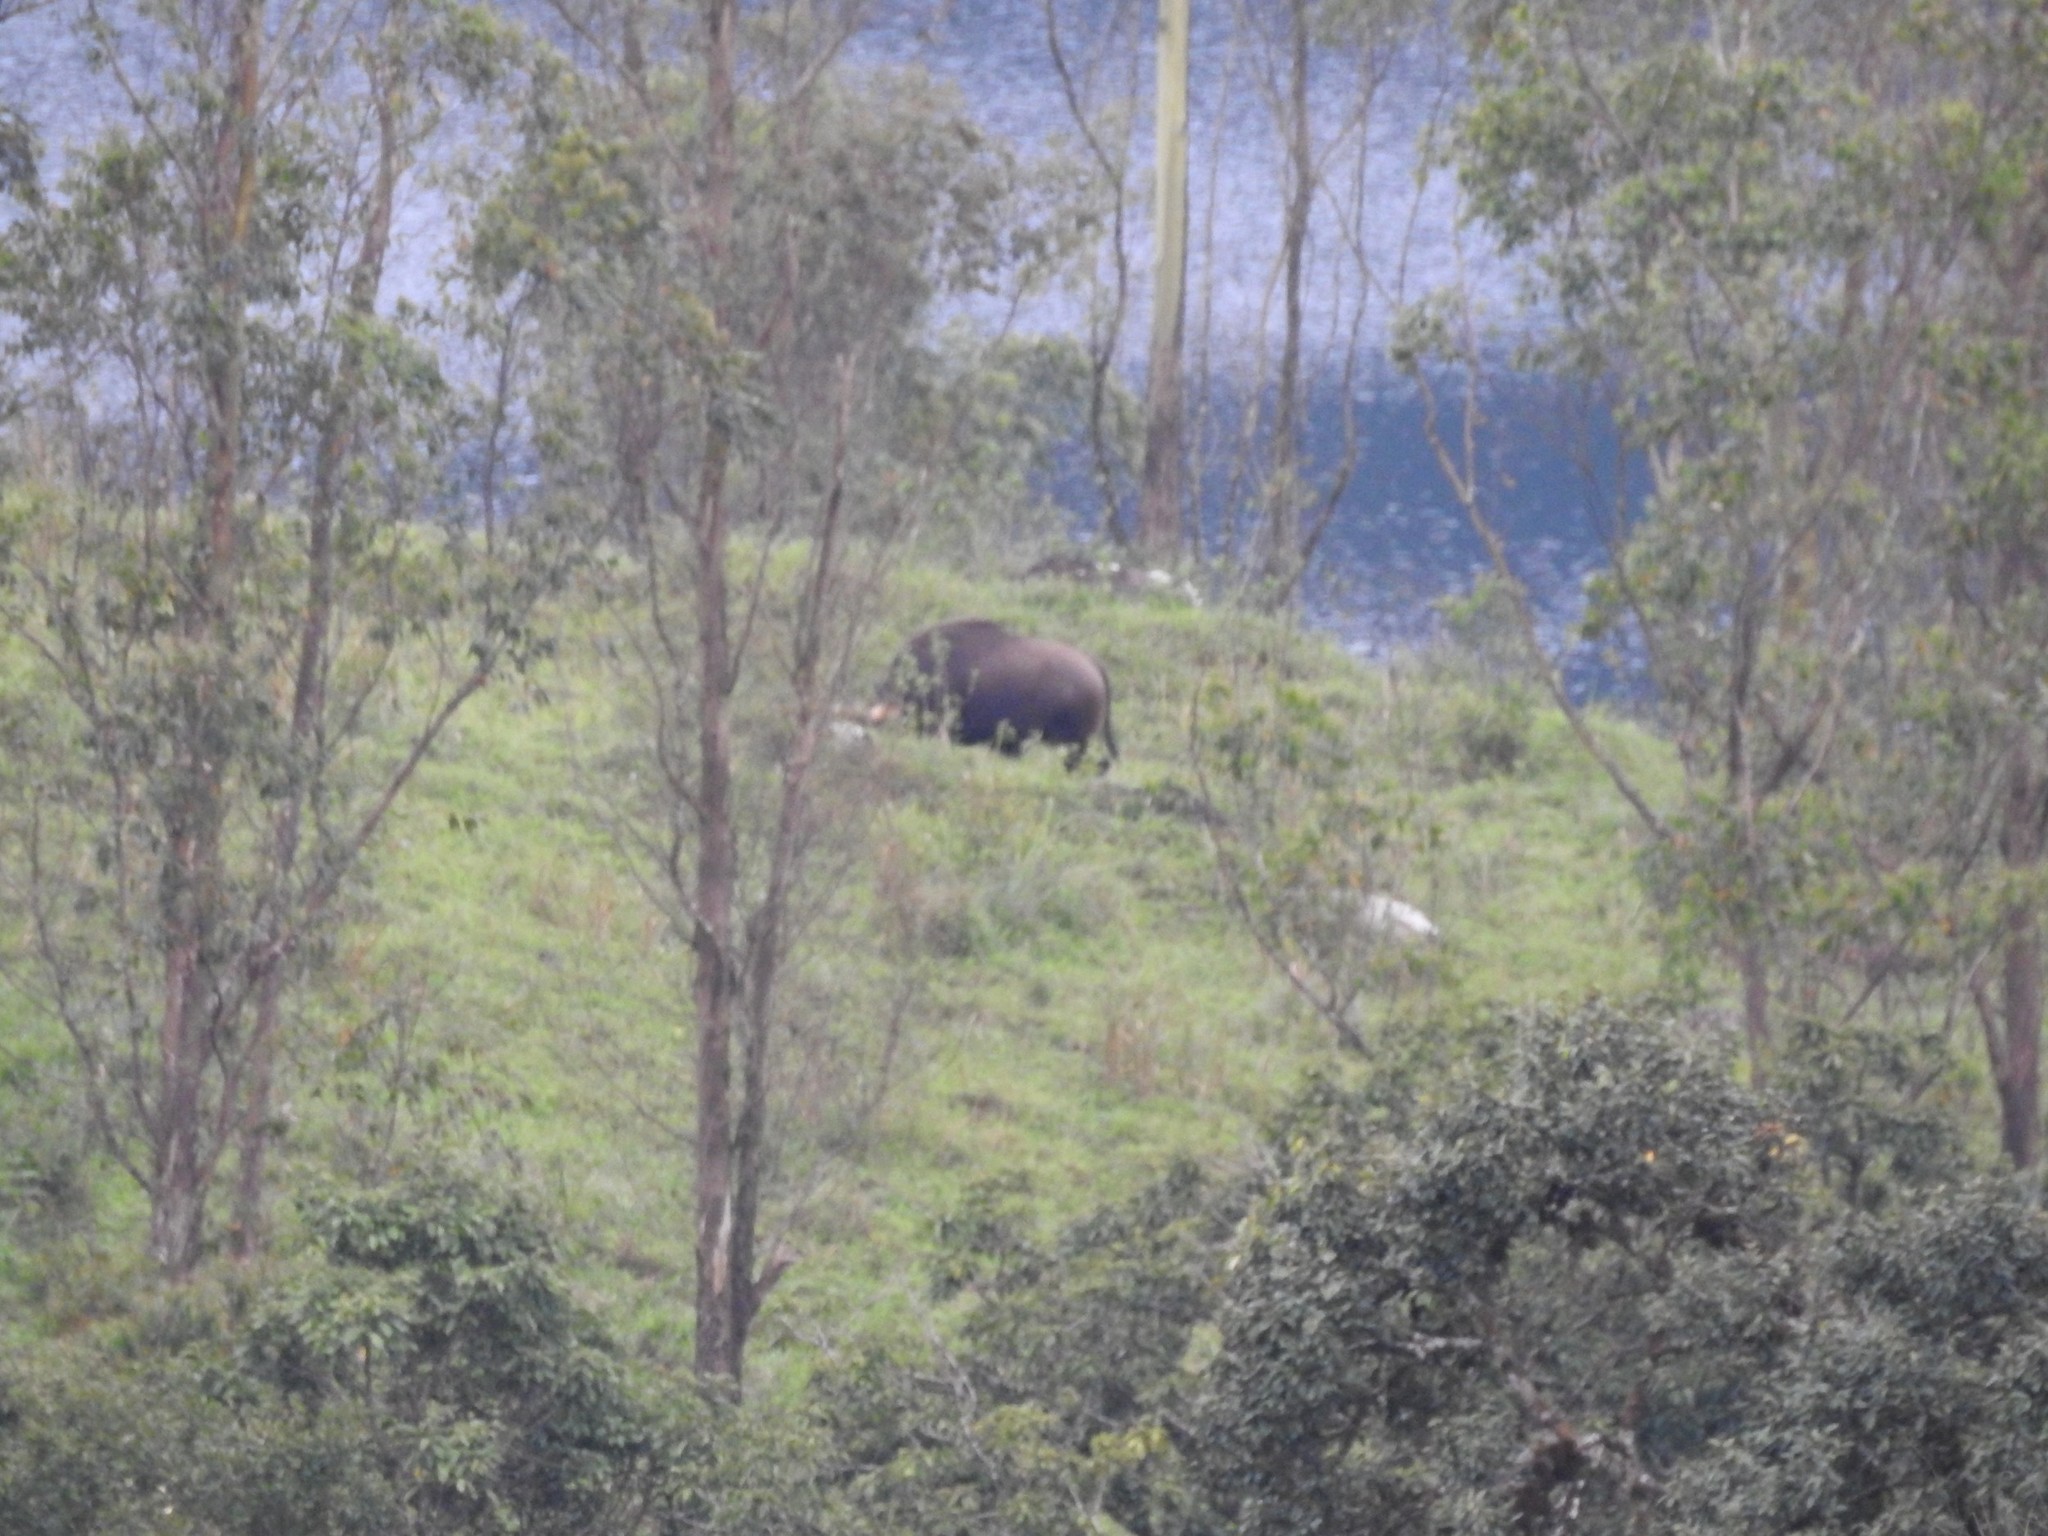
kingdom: Animalia
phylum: Chordata
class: Mammalia
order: Artiodactyla
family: Bovidae
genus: Bos
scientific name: Bos frontalis
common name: Gaur
